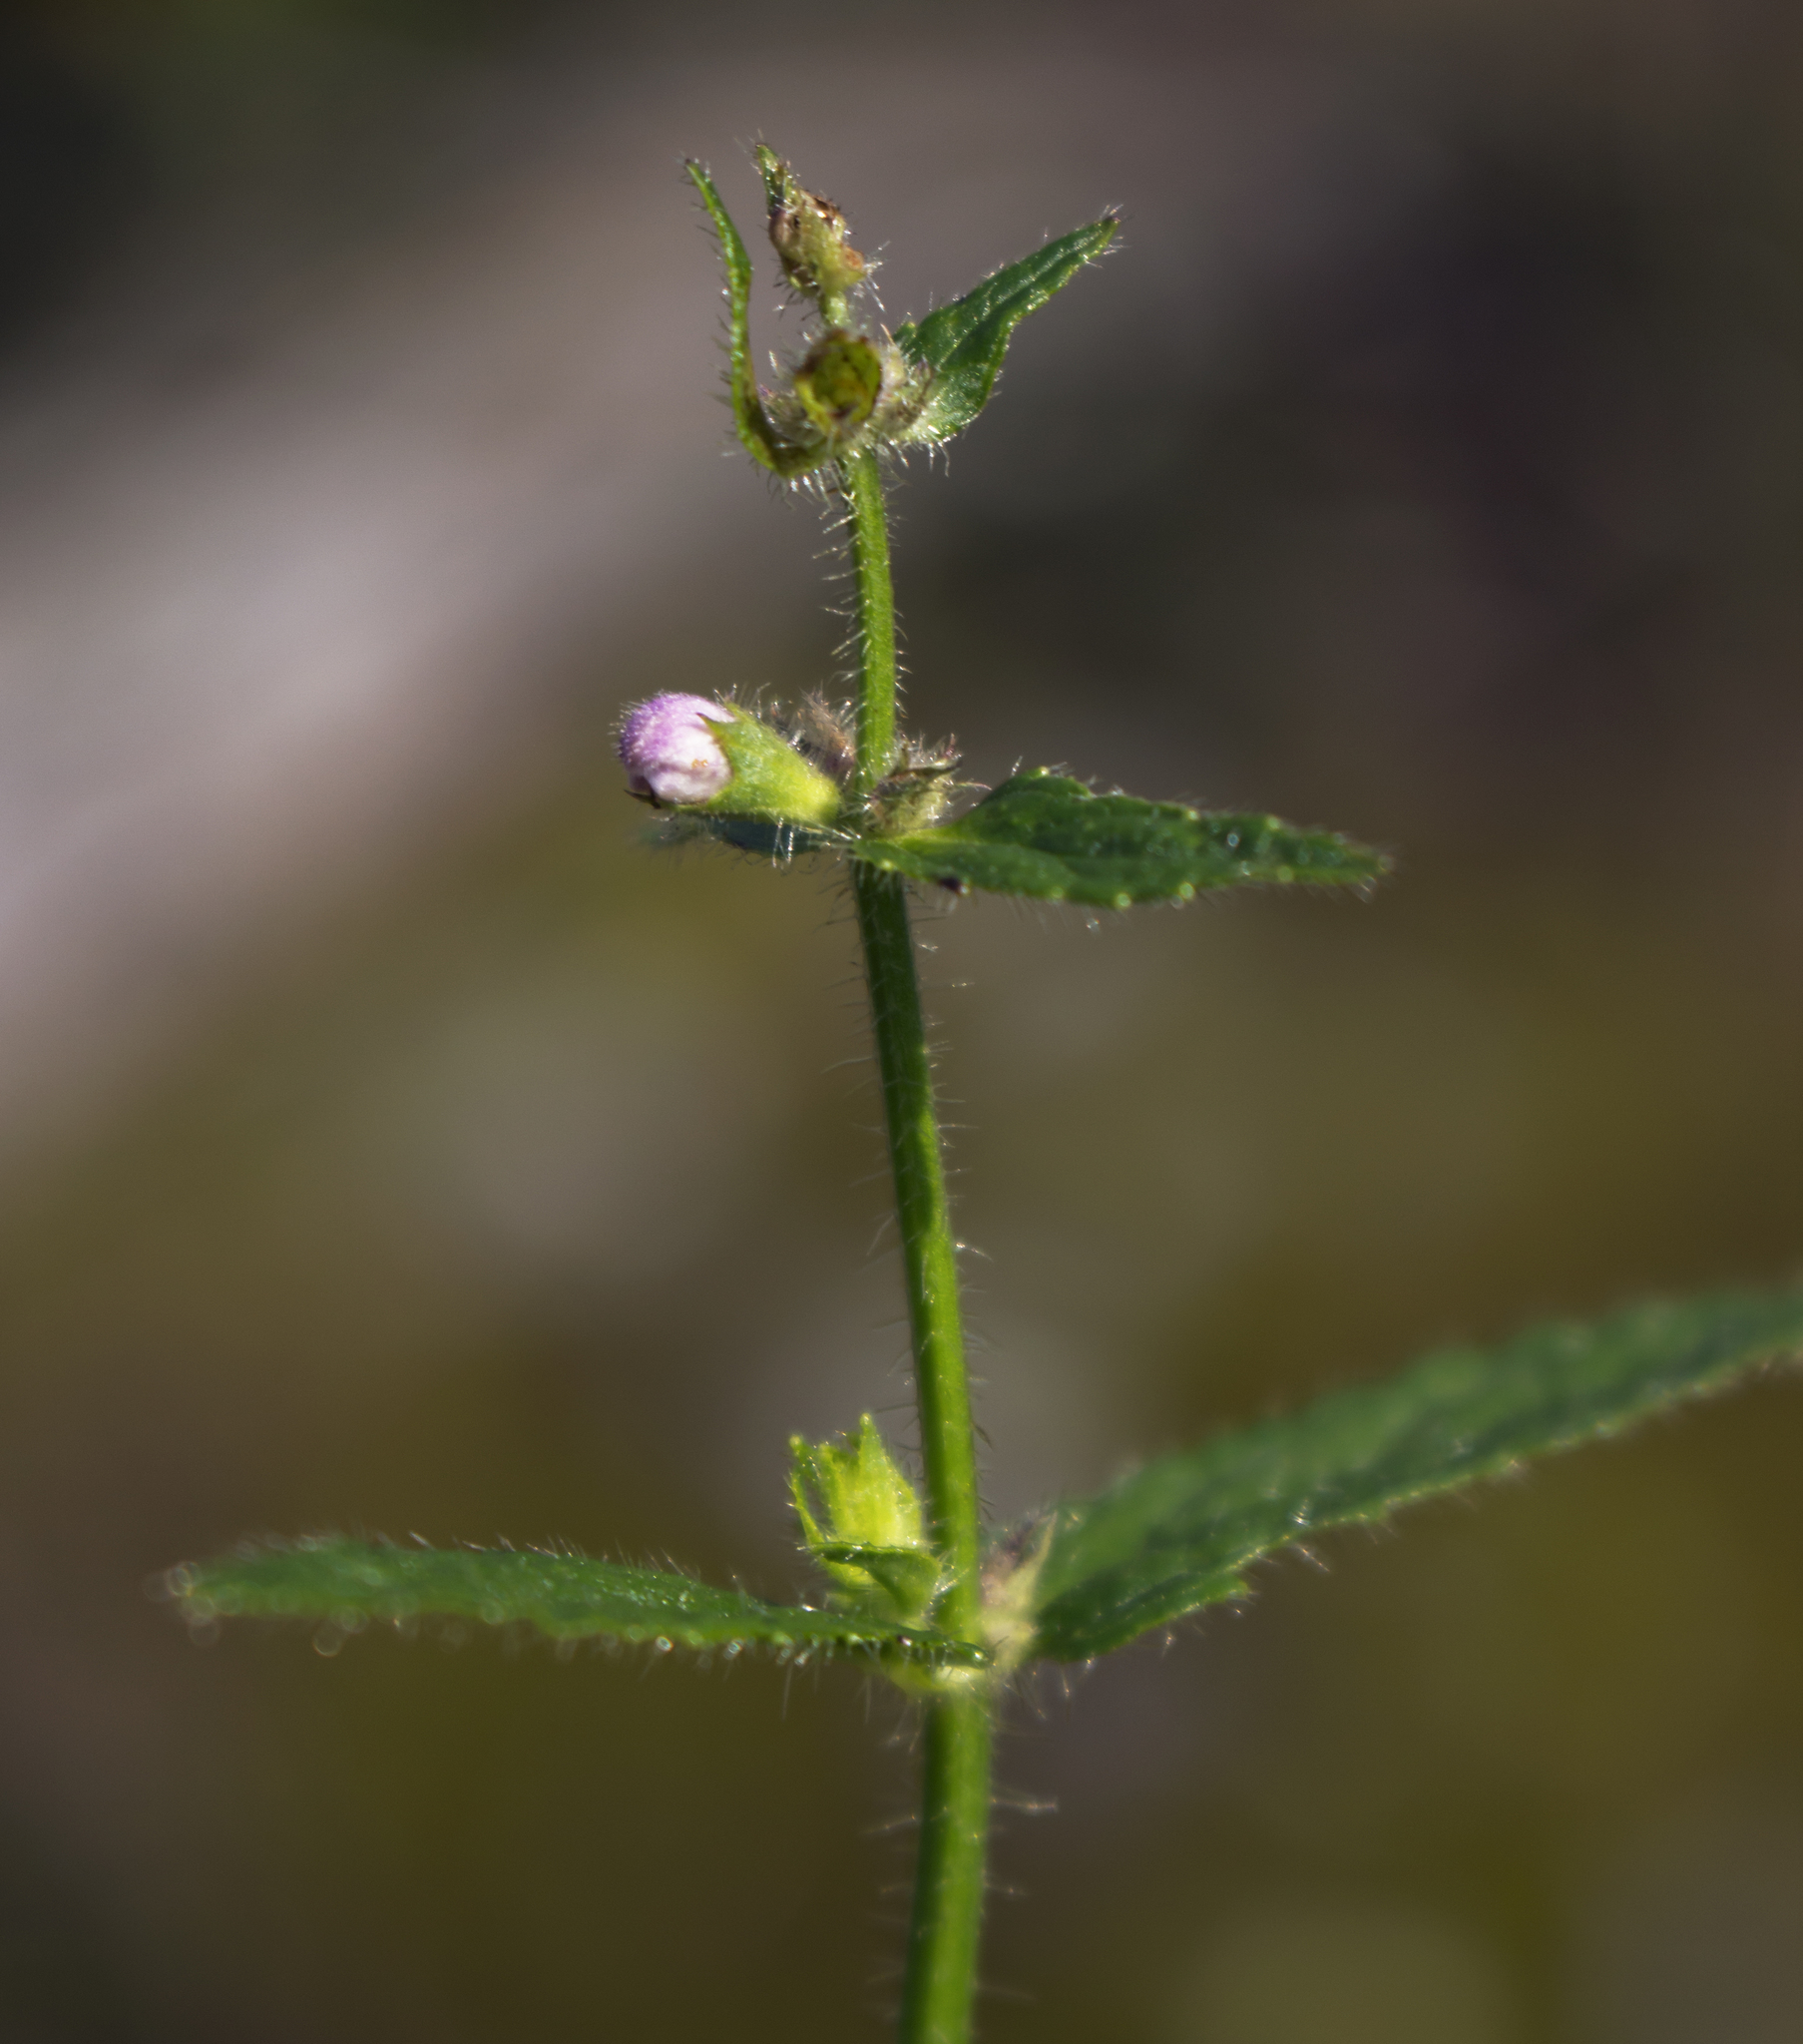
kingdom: Plantae
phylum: Tracheophyta
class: Magnoliopsida
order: Lamiales
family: Lamiaceae
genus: Stachys
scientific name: Stachys hispida
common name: Hispid hedge-nettle
